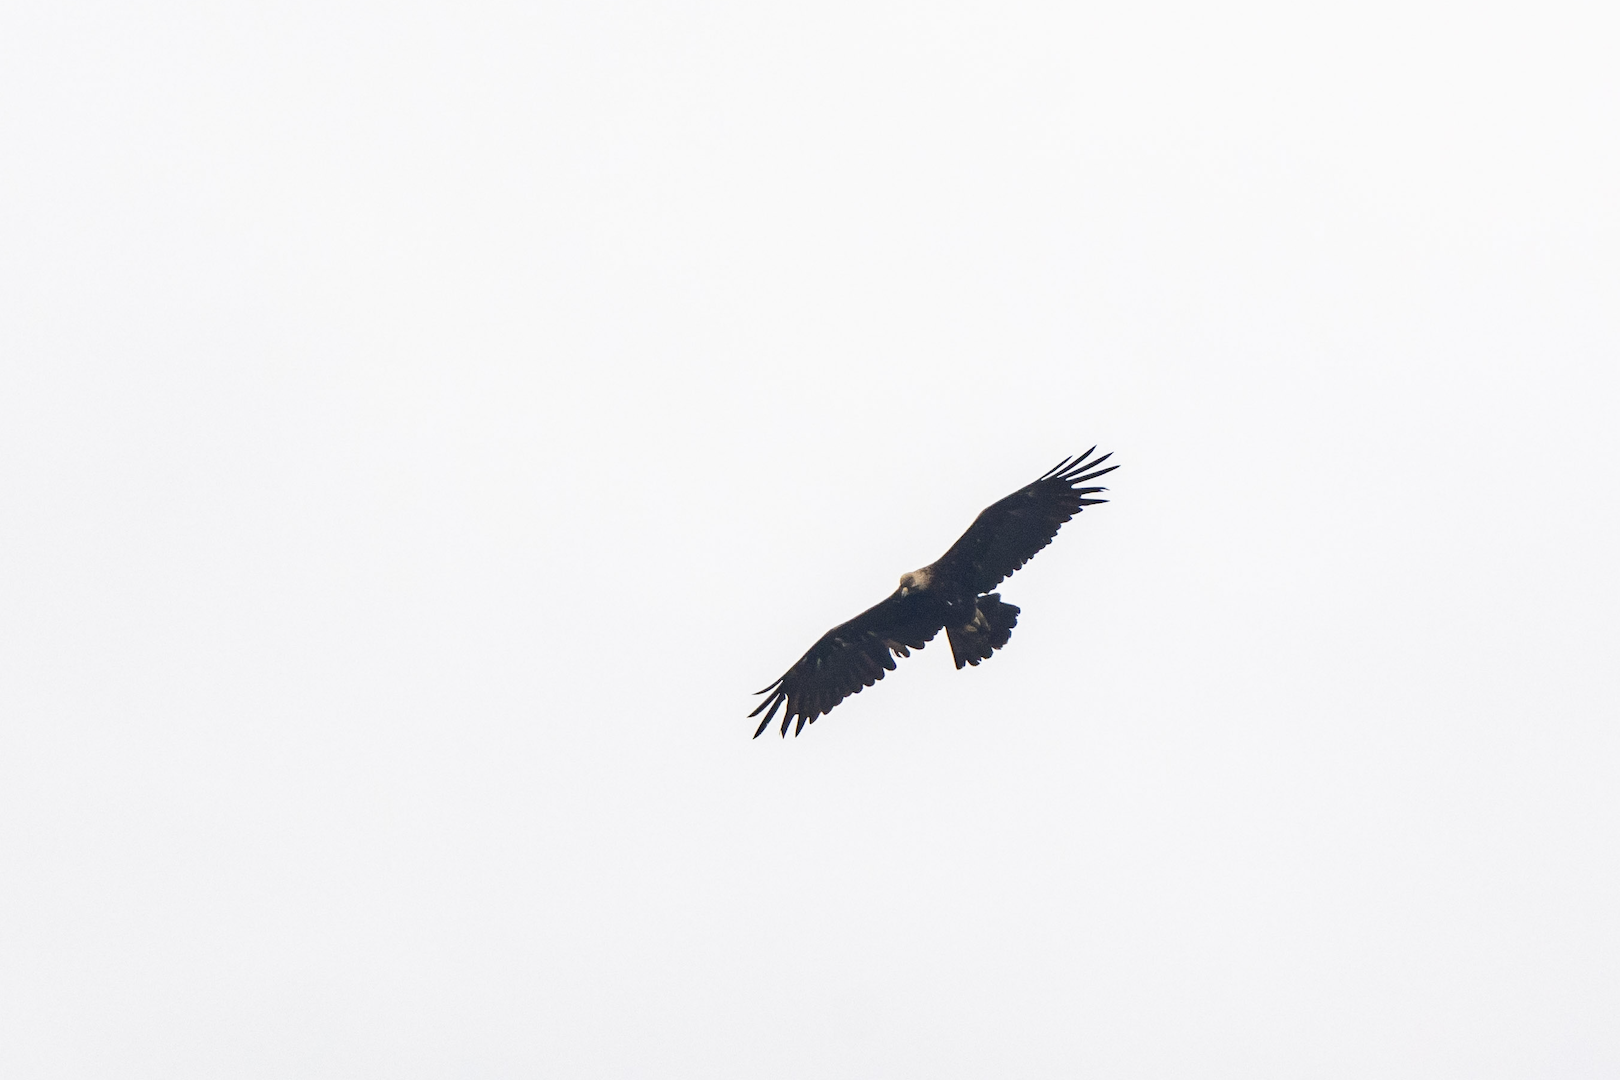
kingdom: Animalia
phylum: Chordata
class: Aves
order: Accipitriformes
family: Accipitridae
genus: Aquila
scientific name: Aquila heliaca
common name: Eastern imperial eagle
